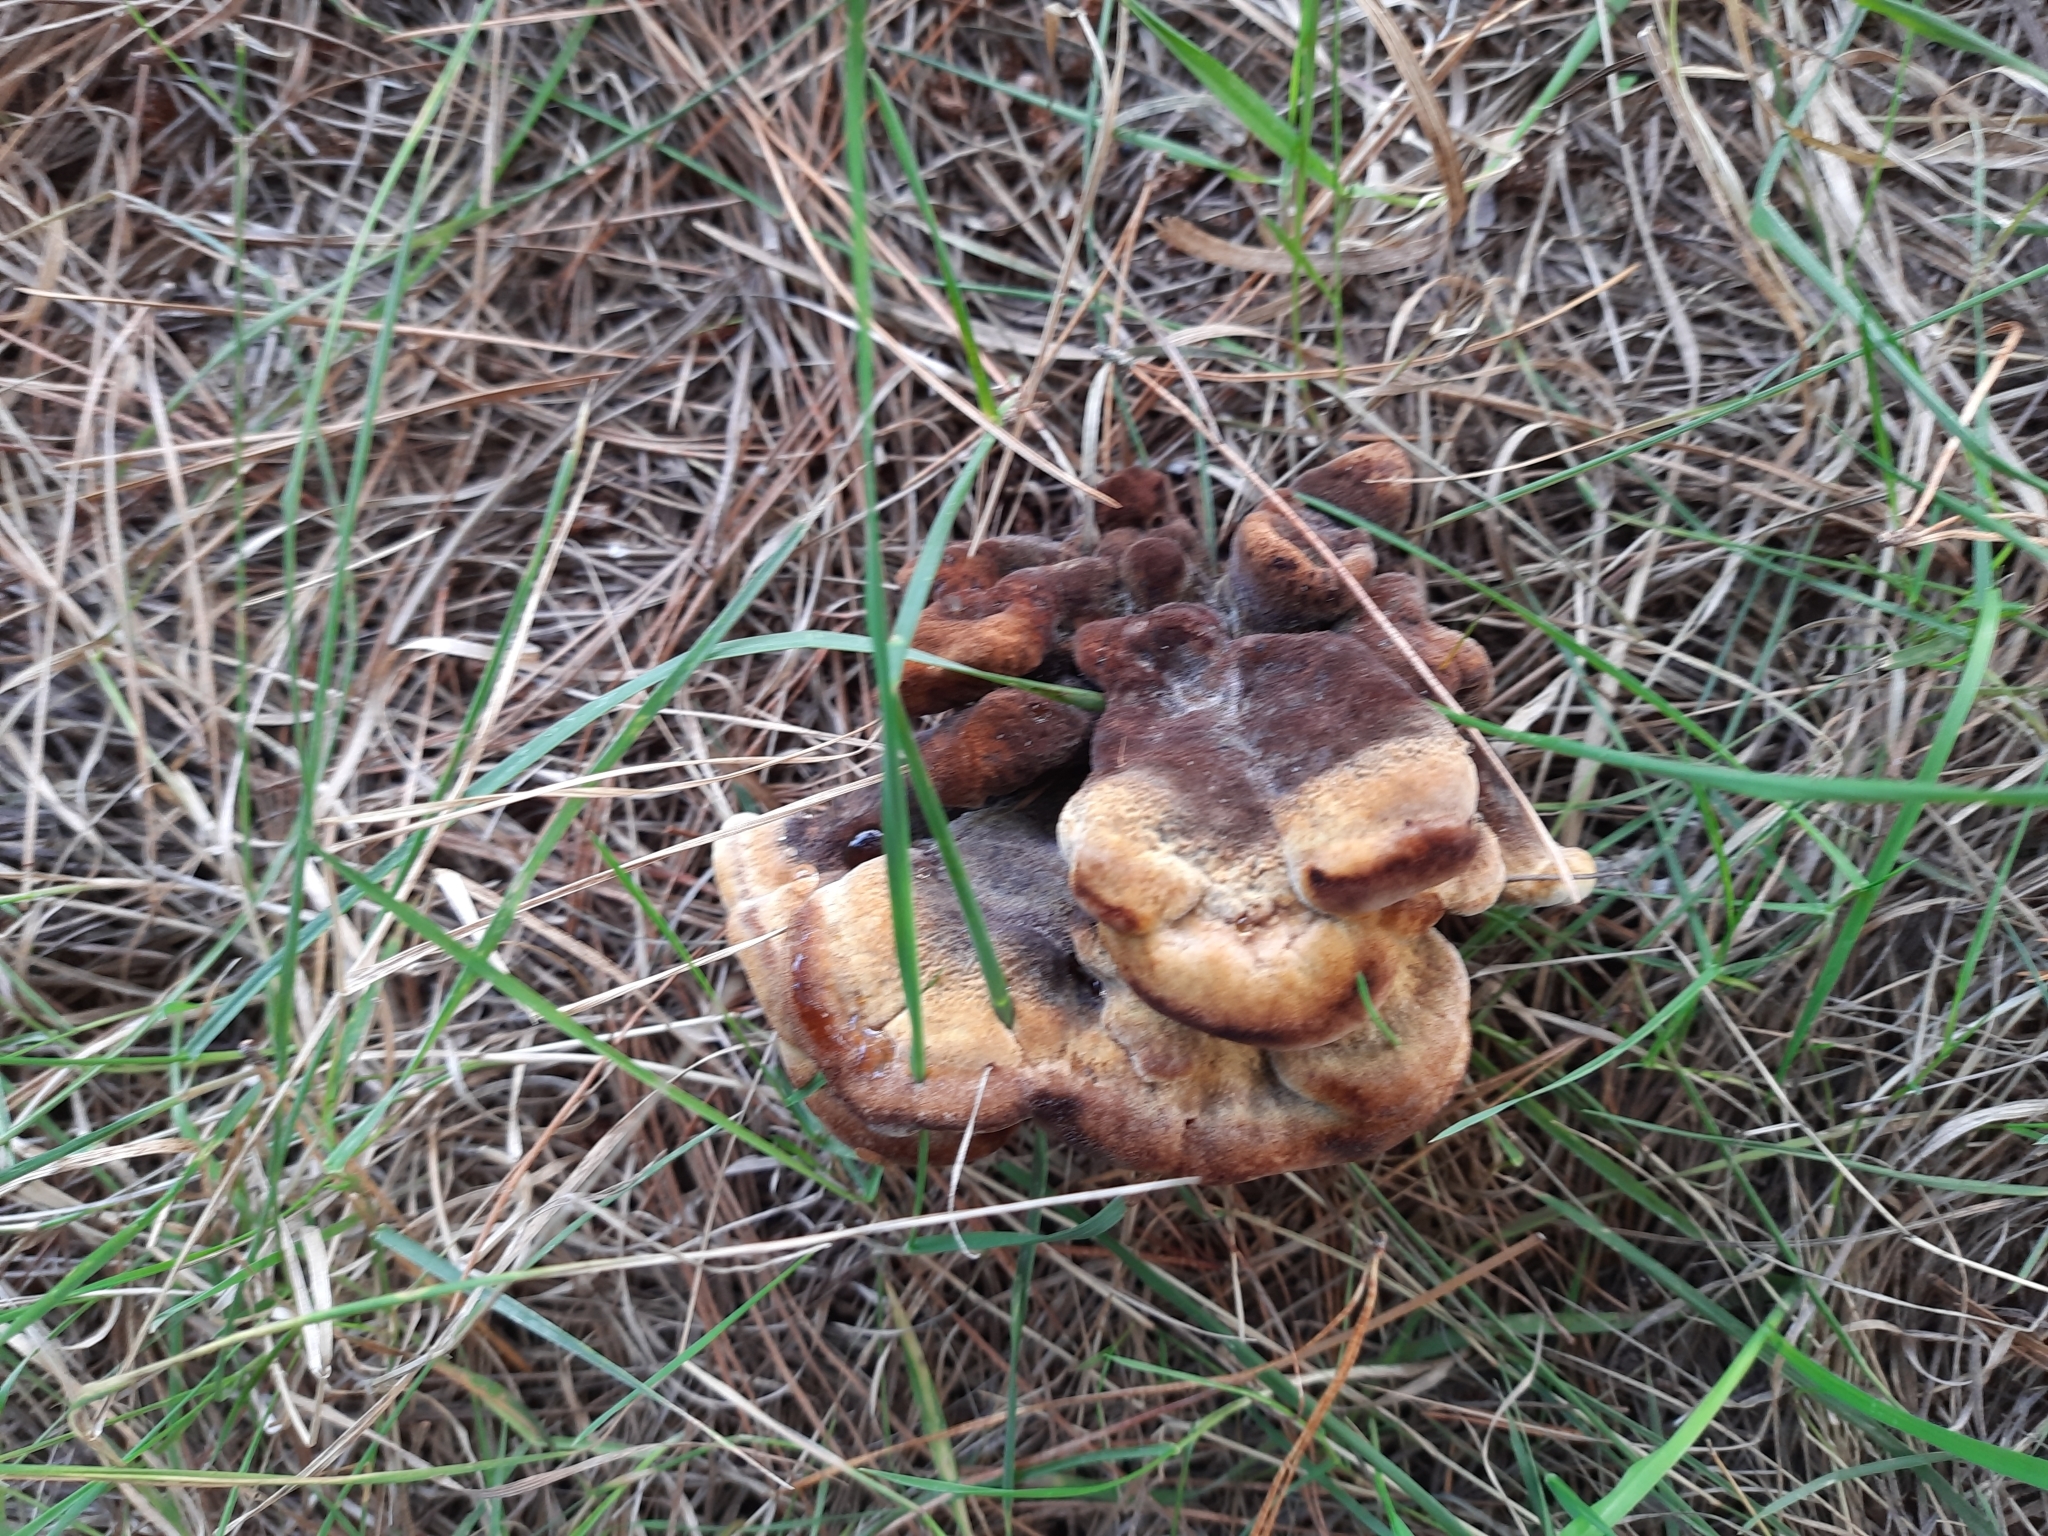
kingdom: Fungi
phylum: Basidiomycota
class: Agaricomycetes
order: Polyporales
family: Laetiporaceae
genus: Phaeolus
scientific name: Phaeolus schweinitzii
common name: Dyer's mazegill
